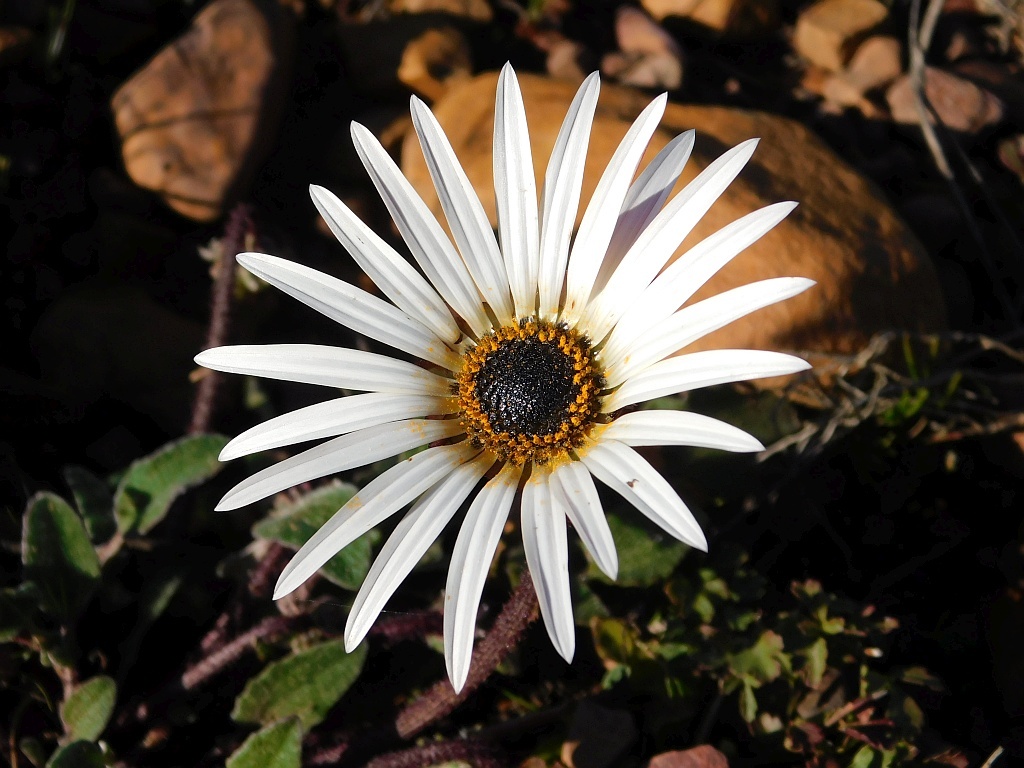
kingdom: Plantae
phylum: Tracheophyta
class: Magnoliopsida
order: Asterales
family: Asteraceae
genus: Arctotis
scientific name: Arctotis acaulis
